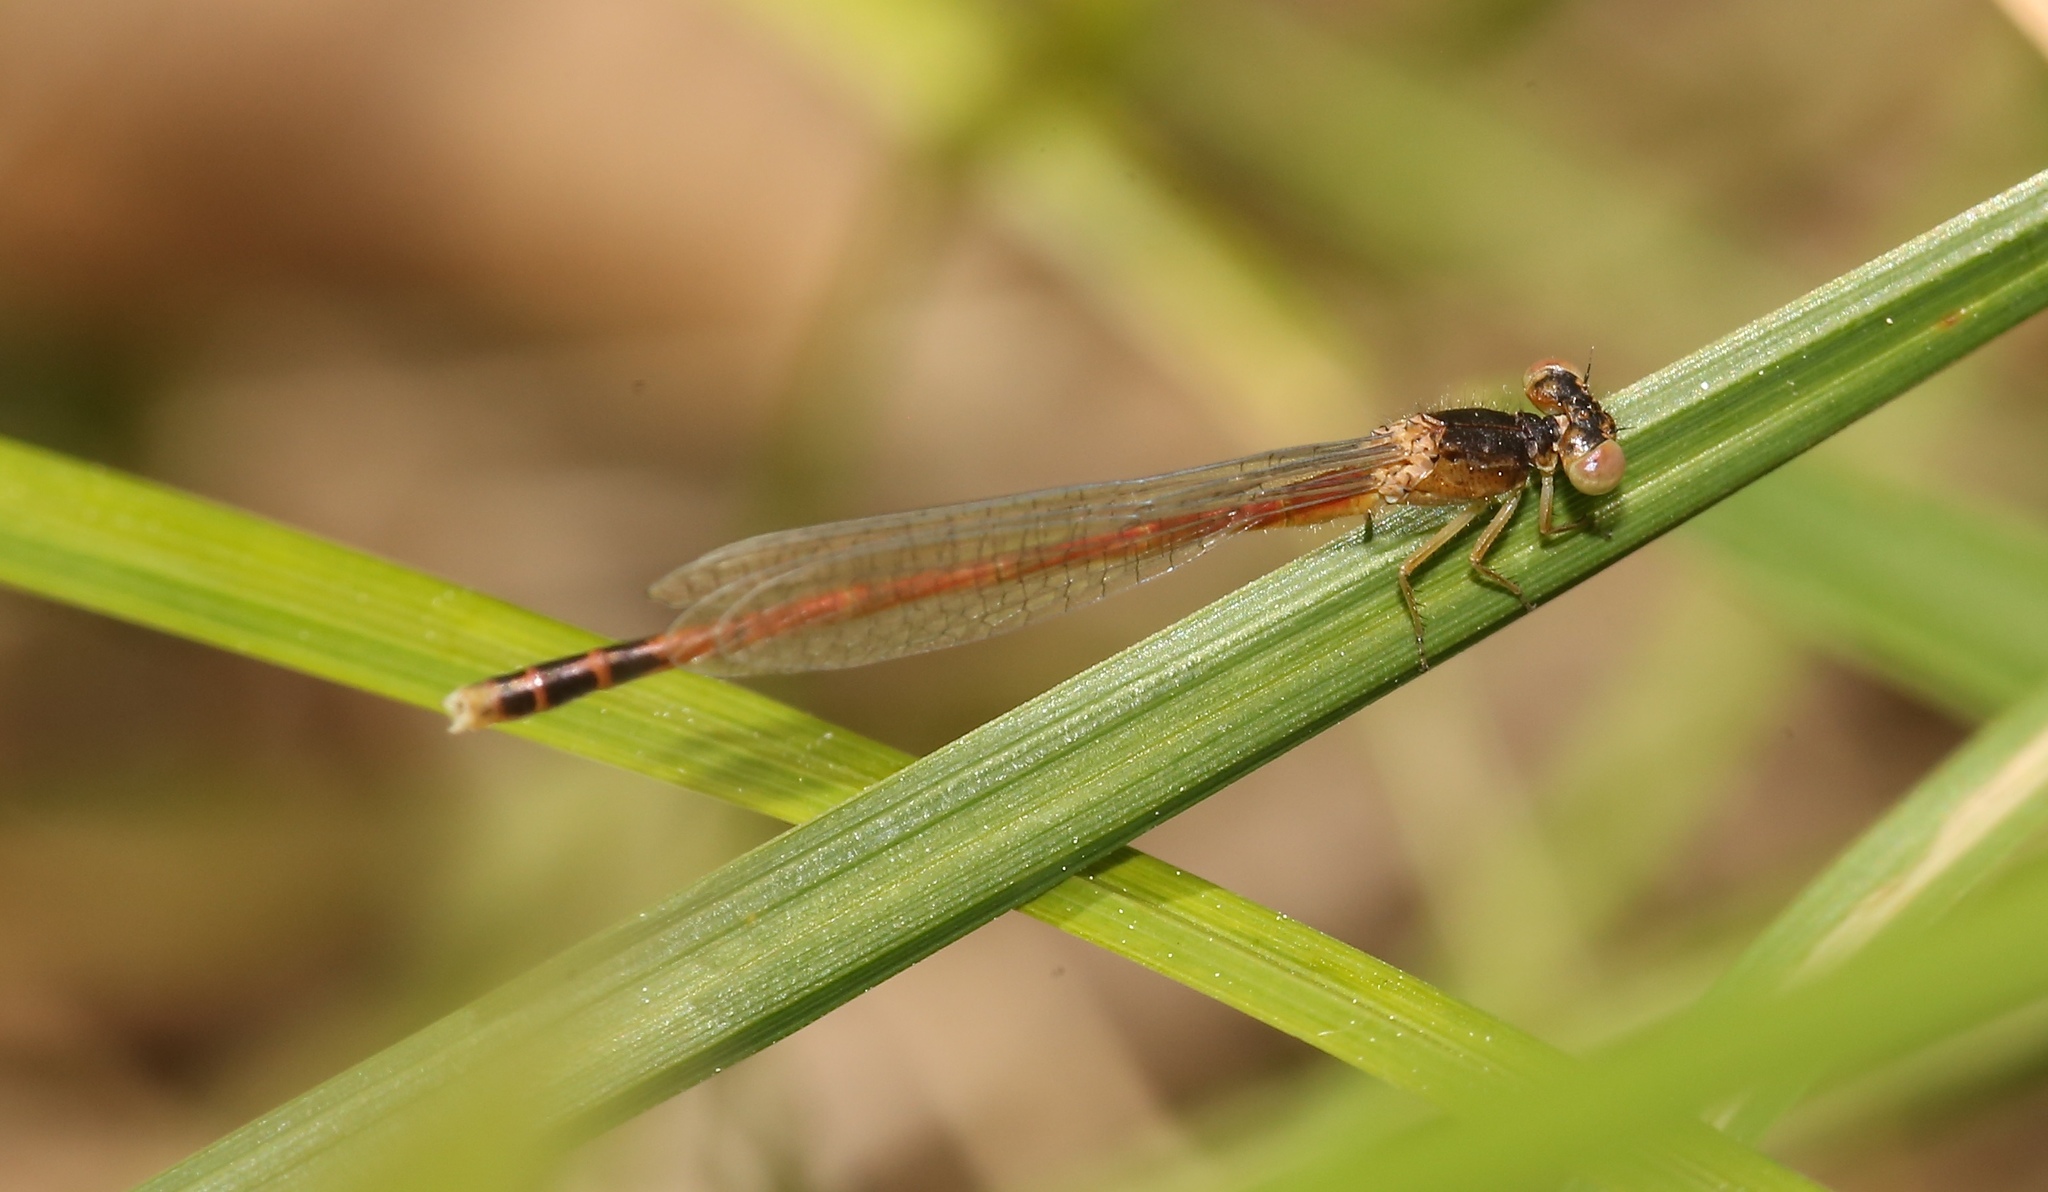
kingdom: Animalia
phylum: Arthropoda
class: Insecta
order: Odonata
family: Coenagrionidae
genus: Amphiagrion
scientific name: Amphiagrion saucium
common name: Eastern red damsel
